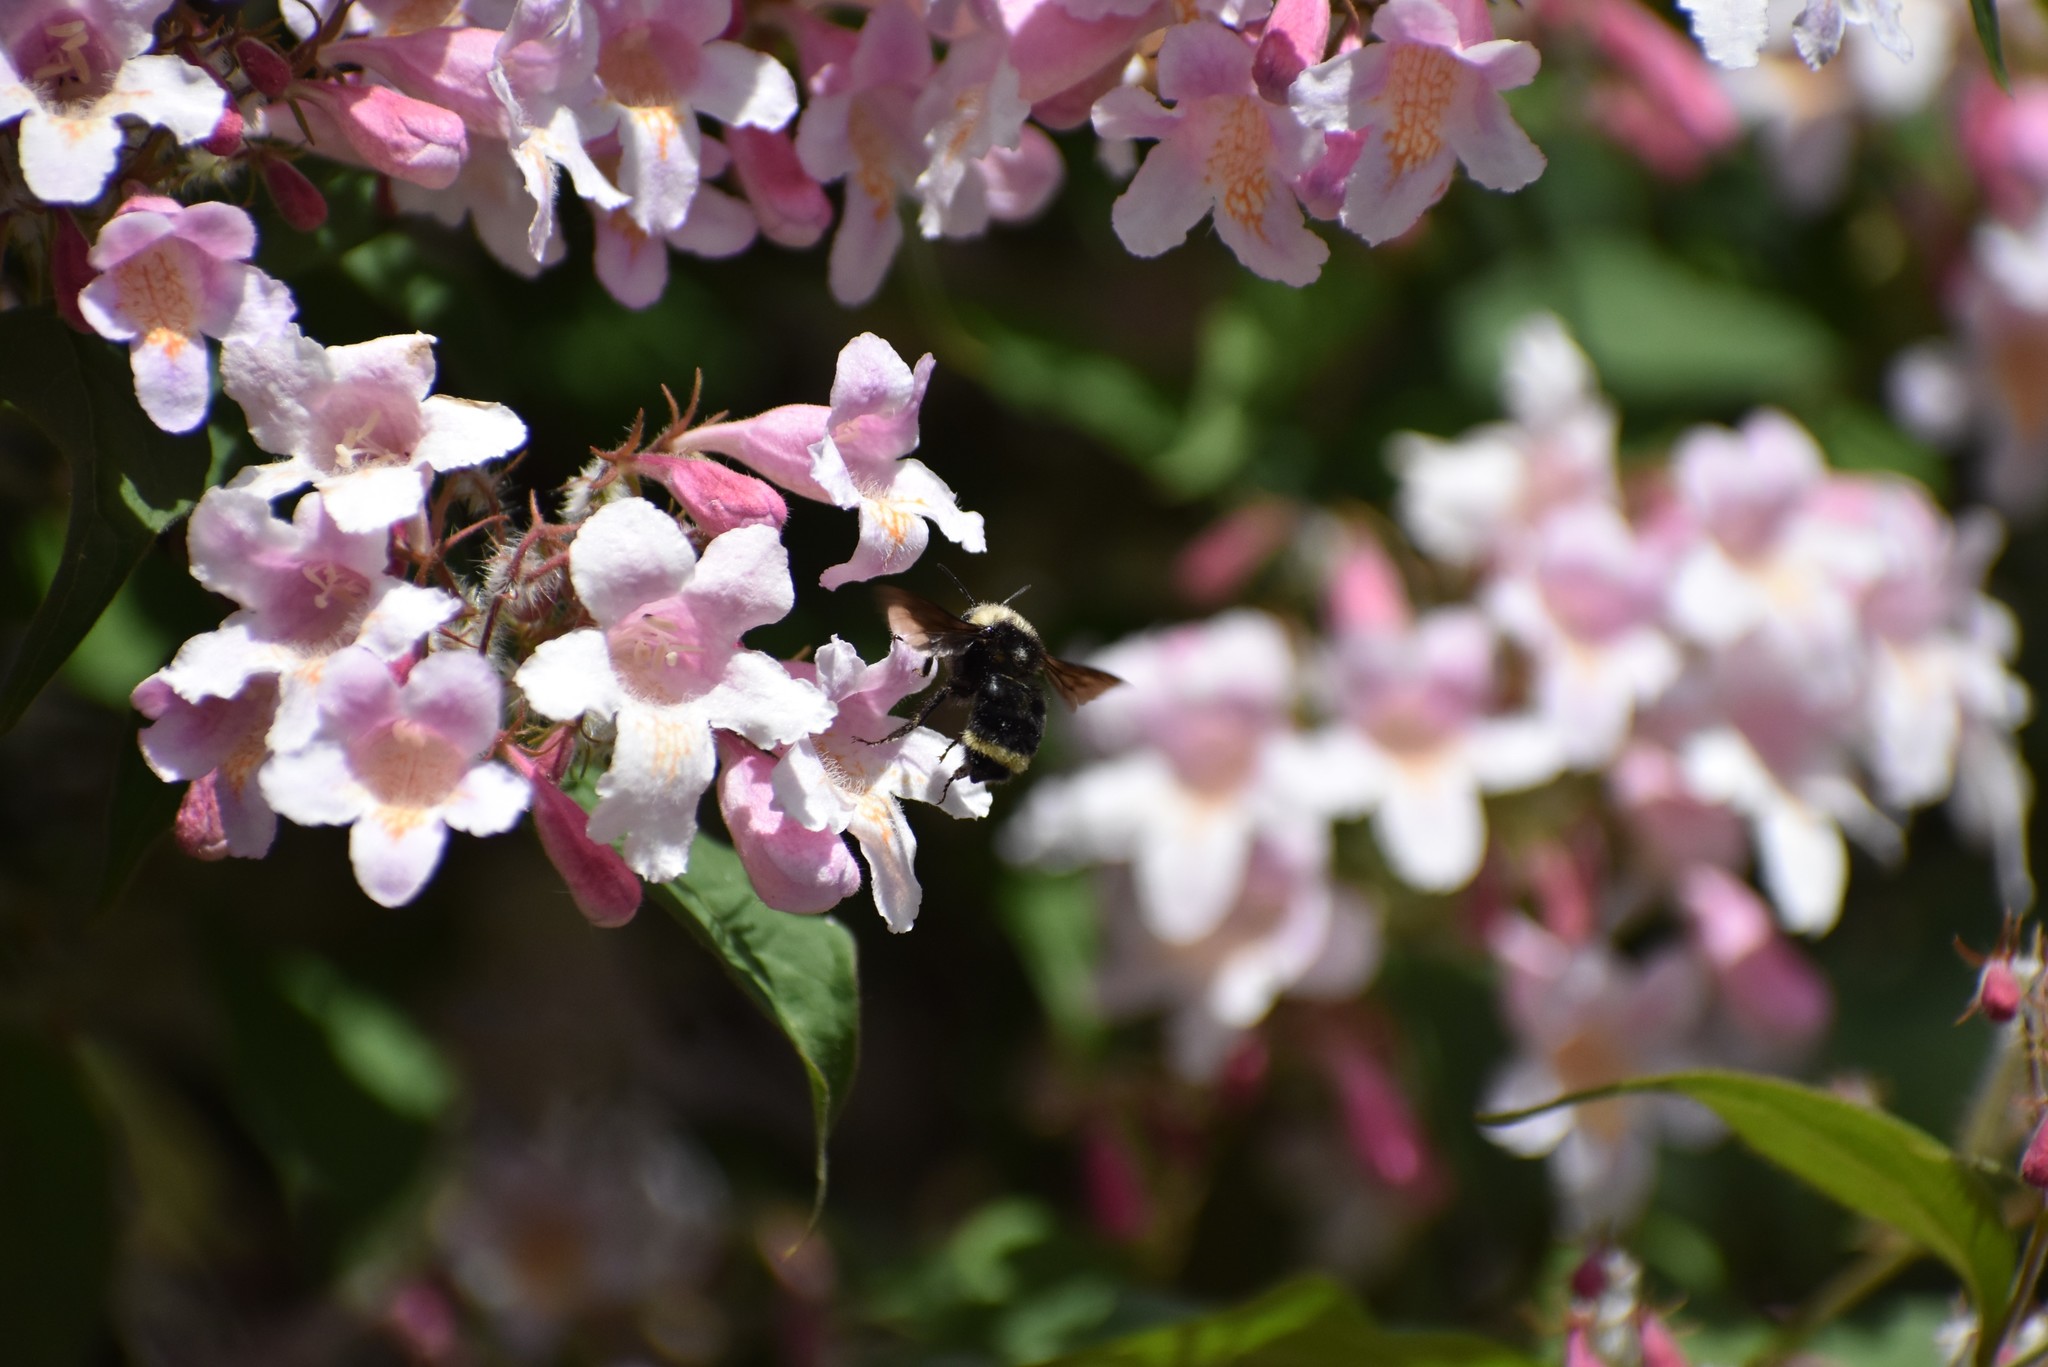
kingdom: Animalia
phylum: Arthropoda
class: Insecta
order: Hymenoptera
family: Apidae
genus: Bombus
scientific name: Bombus vosnesenskii
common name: Vosnesensky bumble bee
